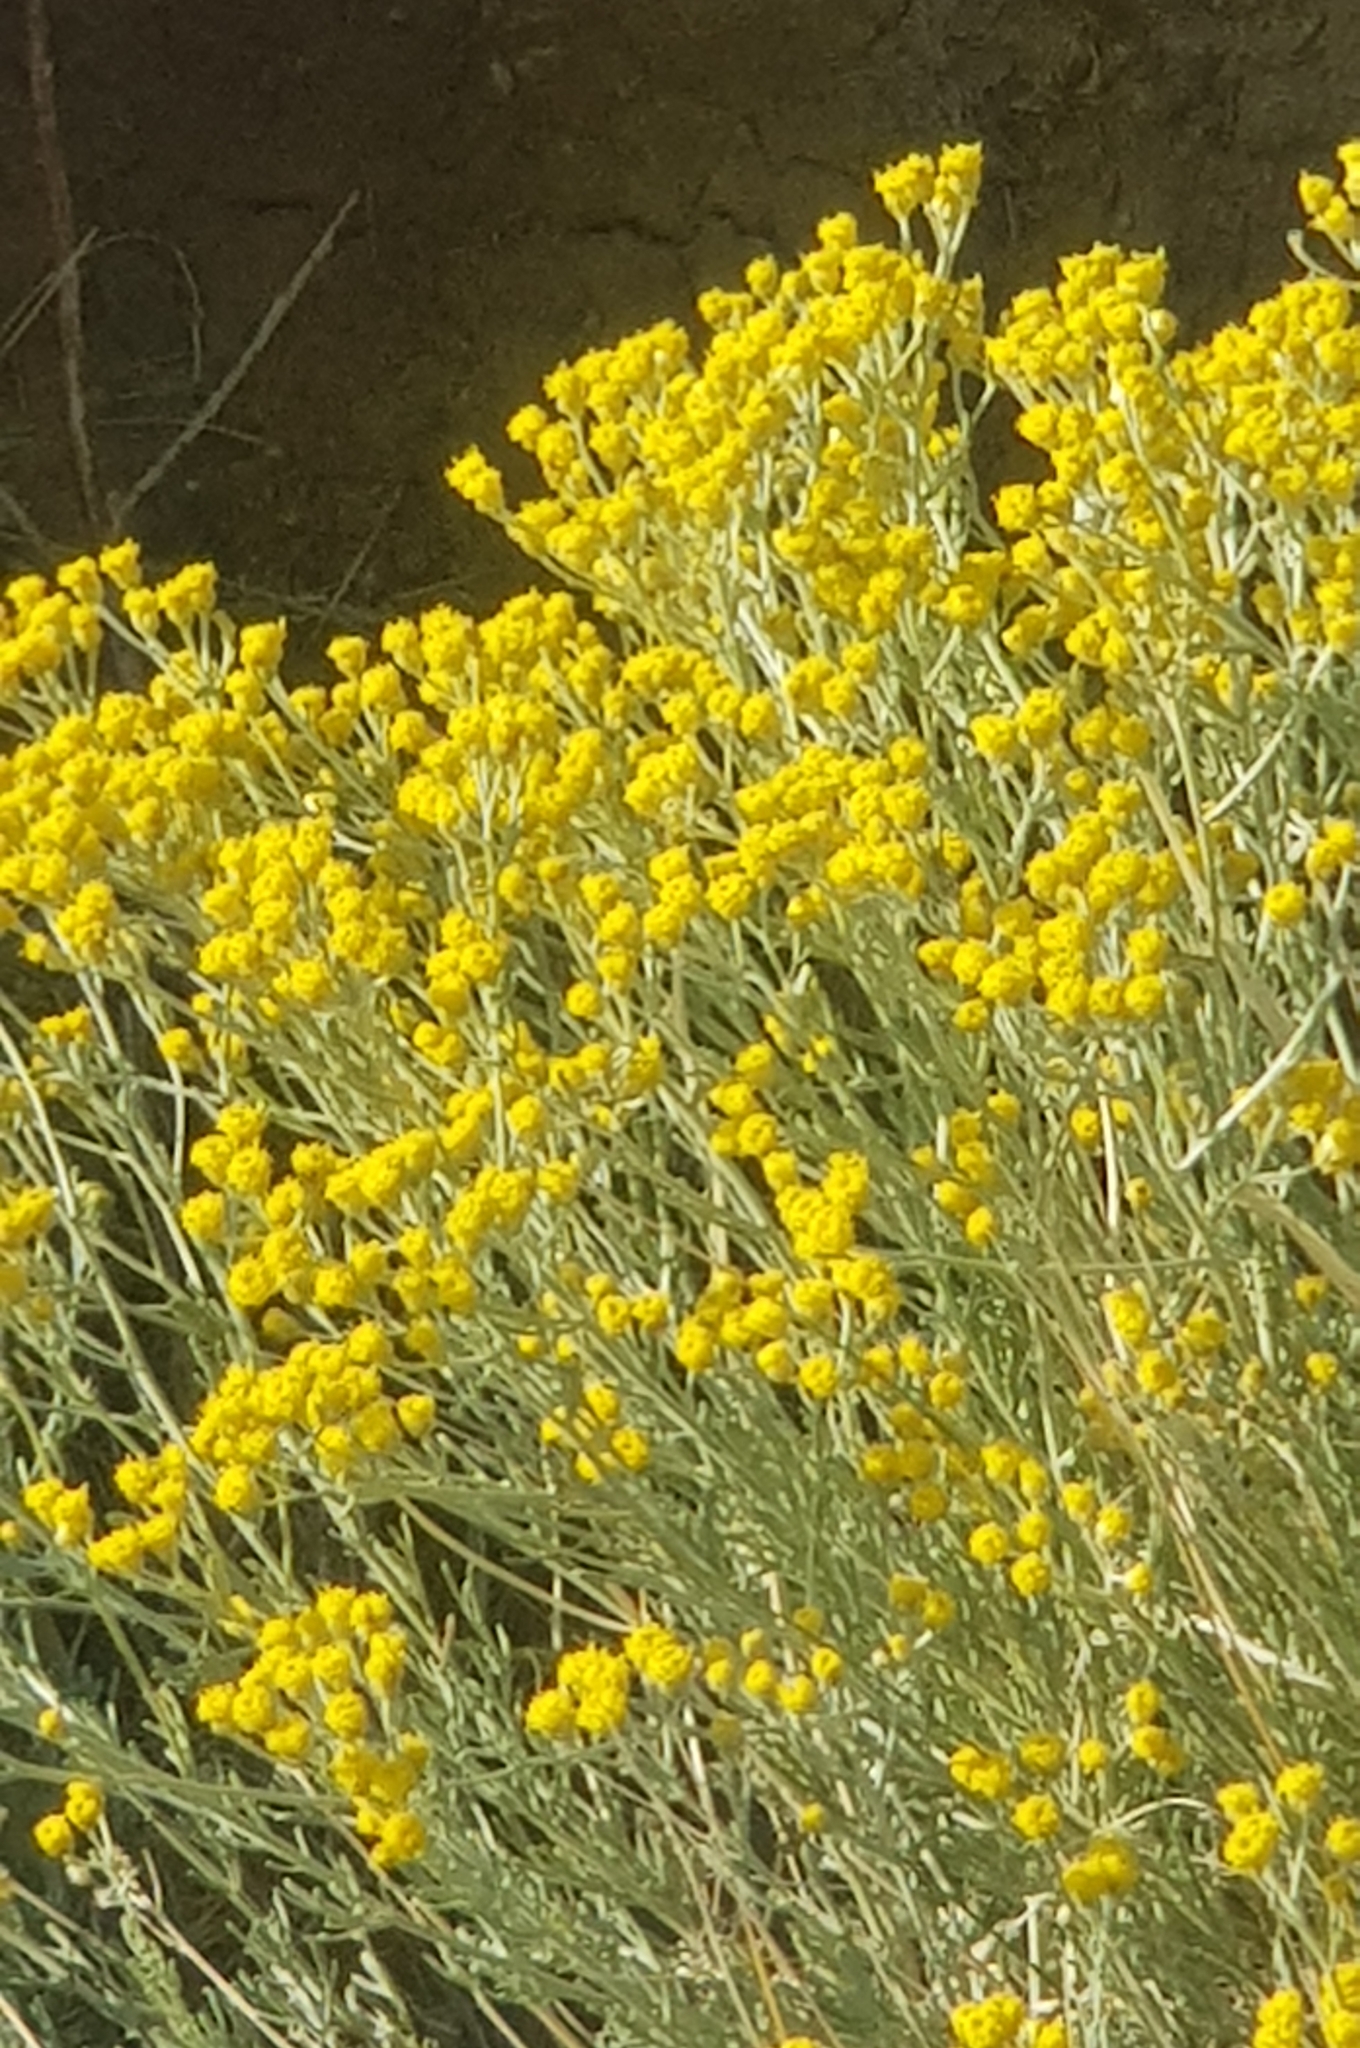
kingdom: Plantae
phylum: Tracheophyta
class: Magnoliopsida
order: Asterales
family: Asteraceae
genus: Ajania
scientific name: Ajania achilleoides
